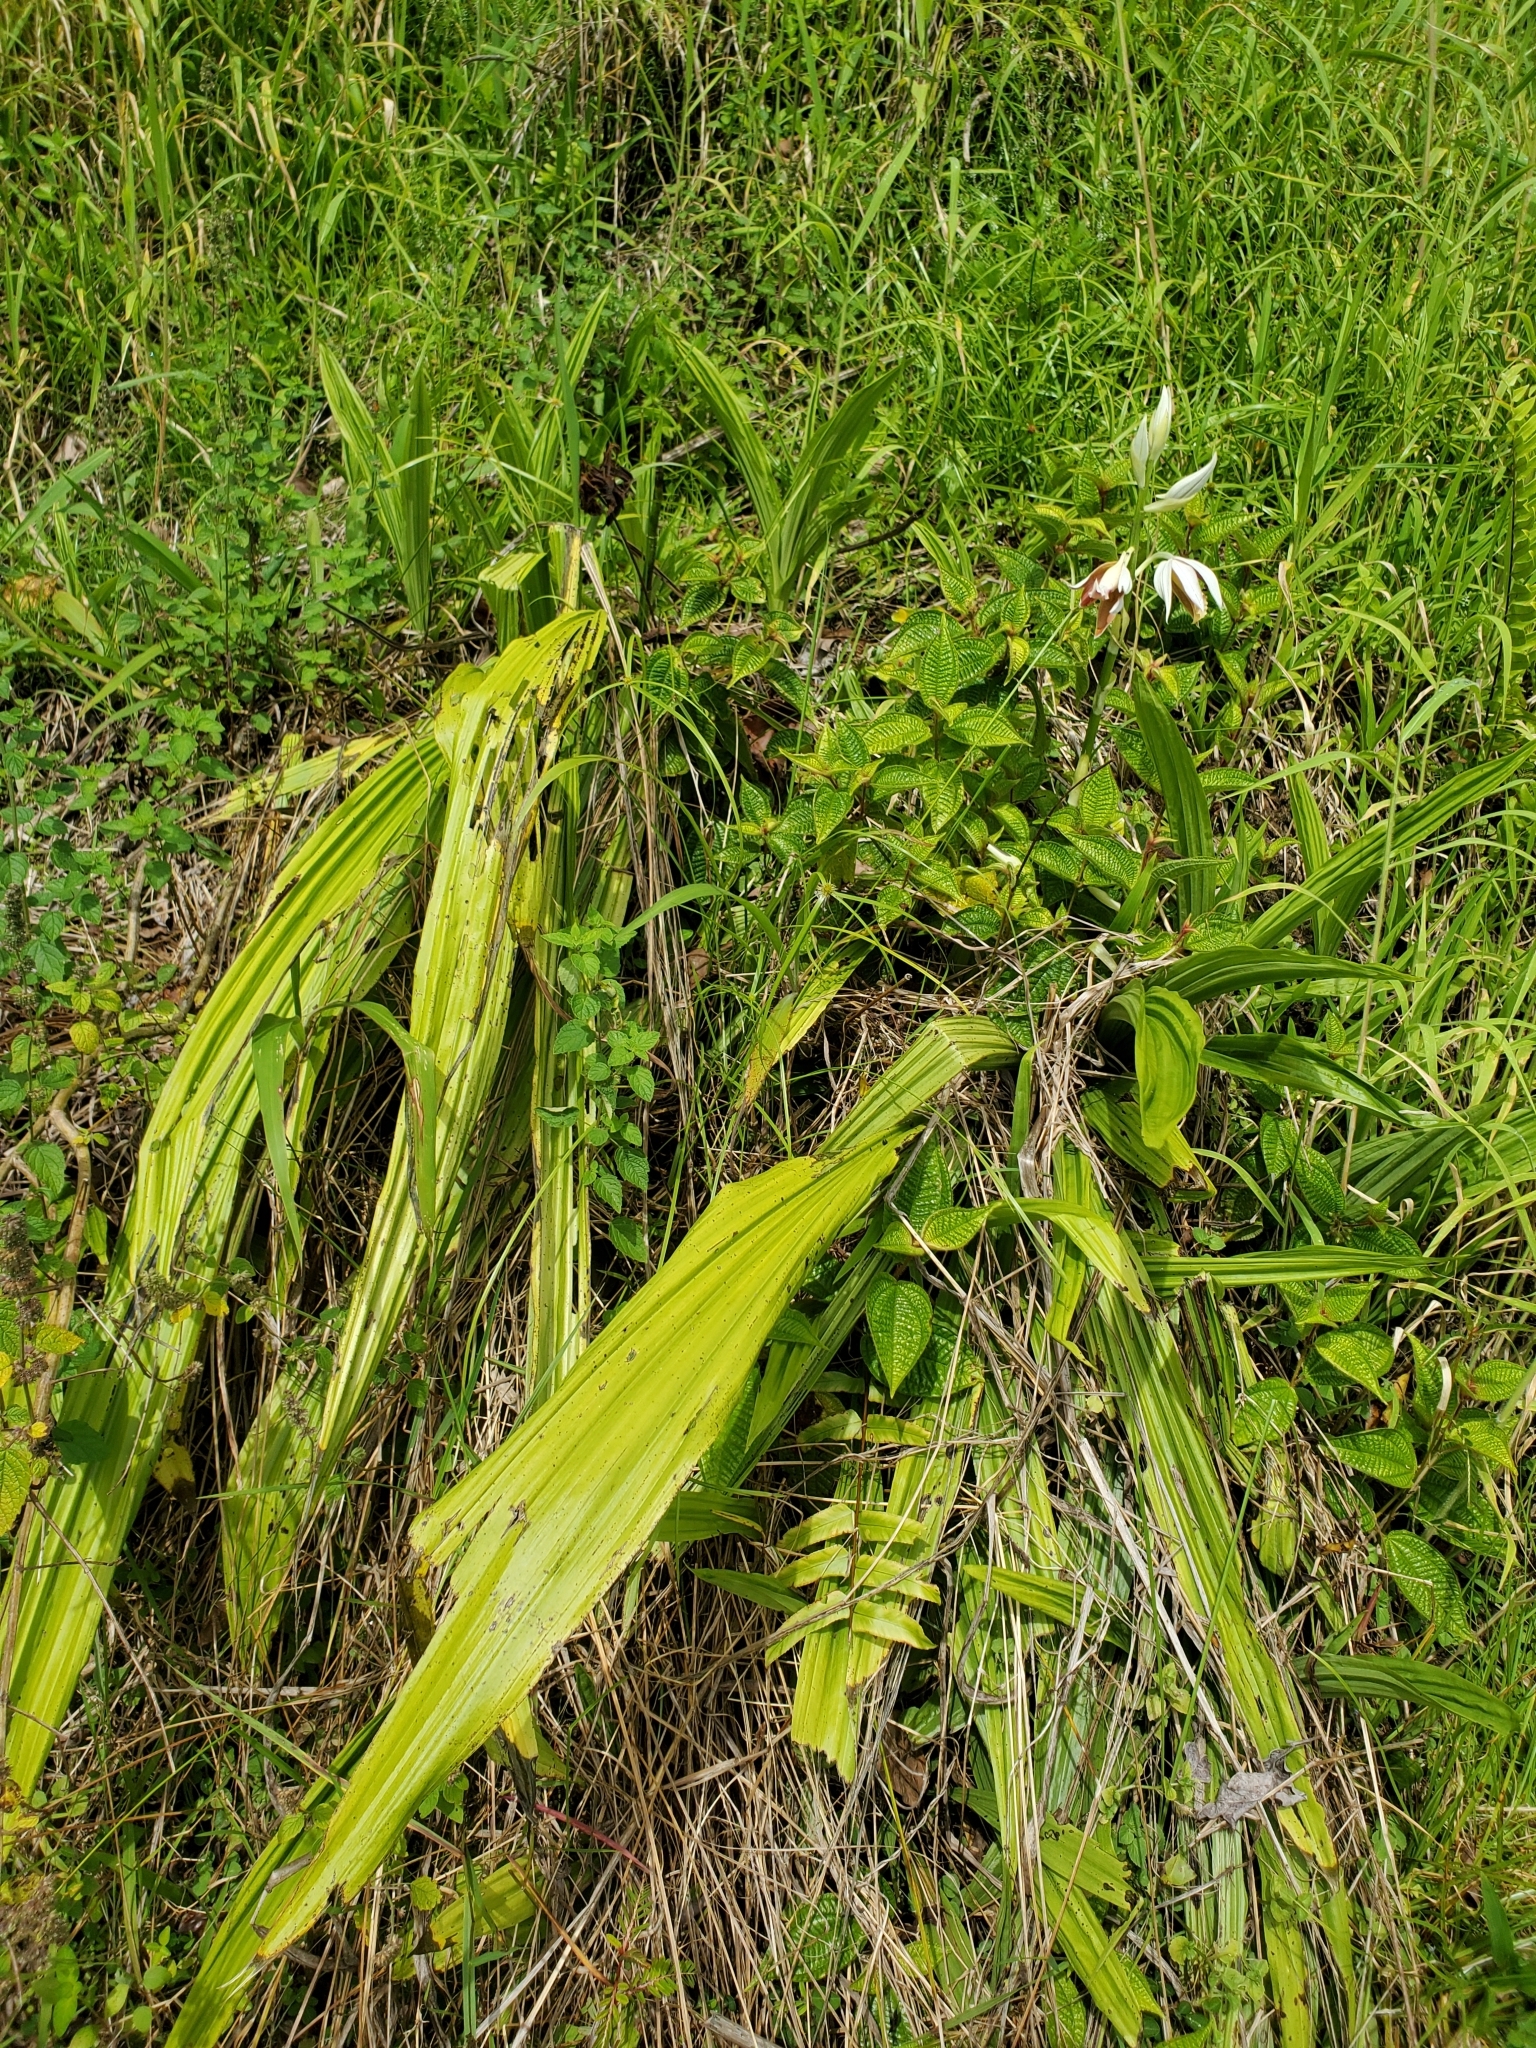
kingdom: Plantae
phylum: Tracheophyta
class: Liliopsida
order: Asparagales
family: Orchidaceae
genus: Calanthe
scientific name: Calanthe tankervilleae
